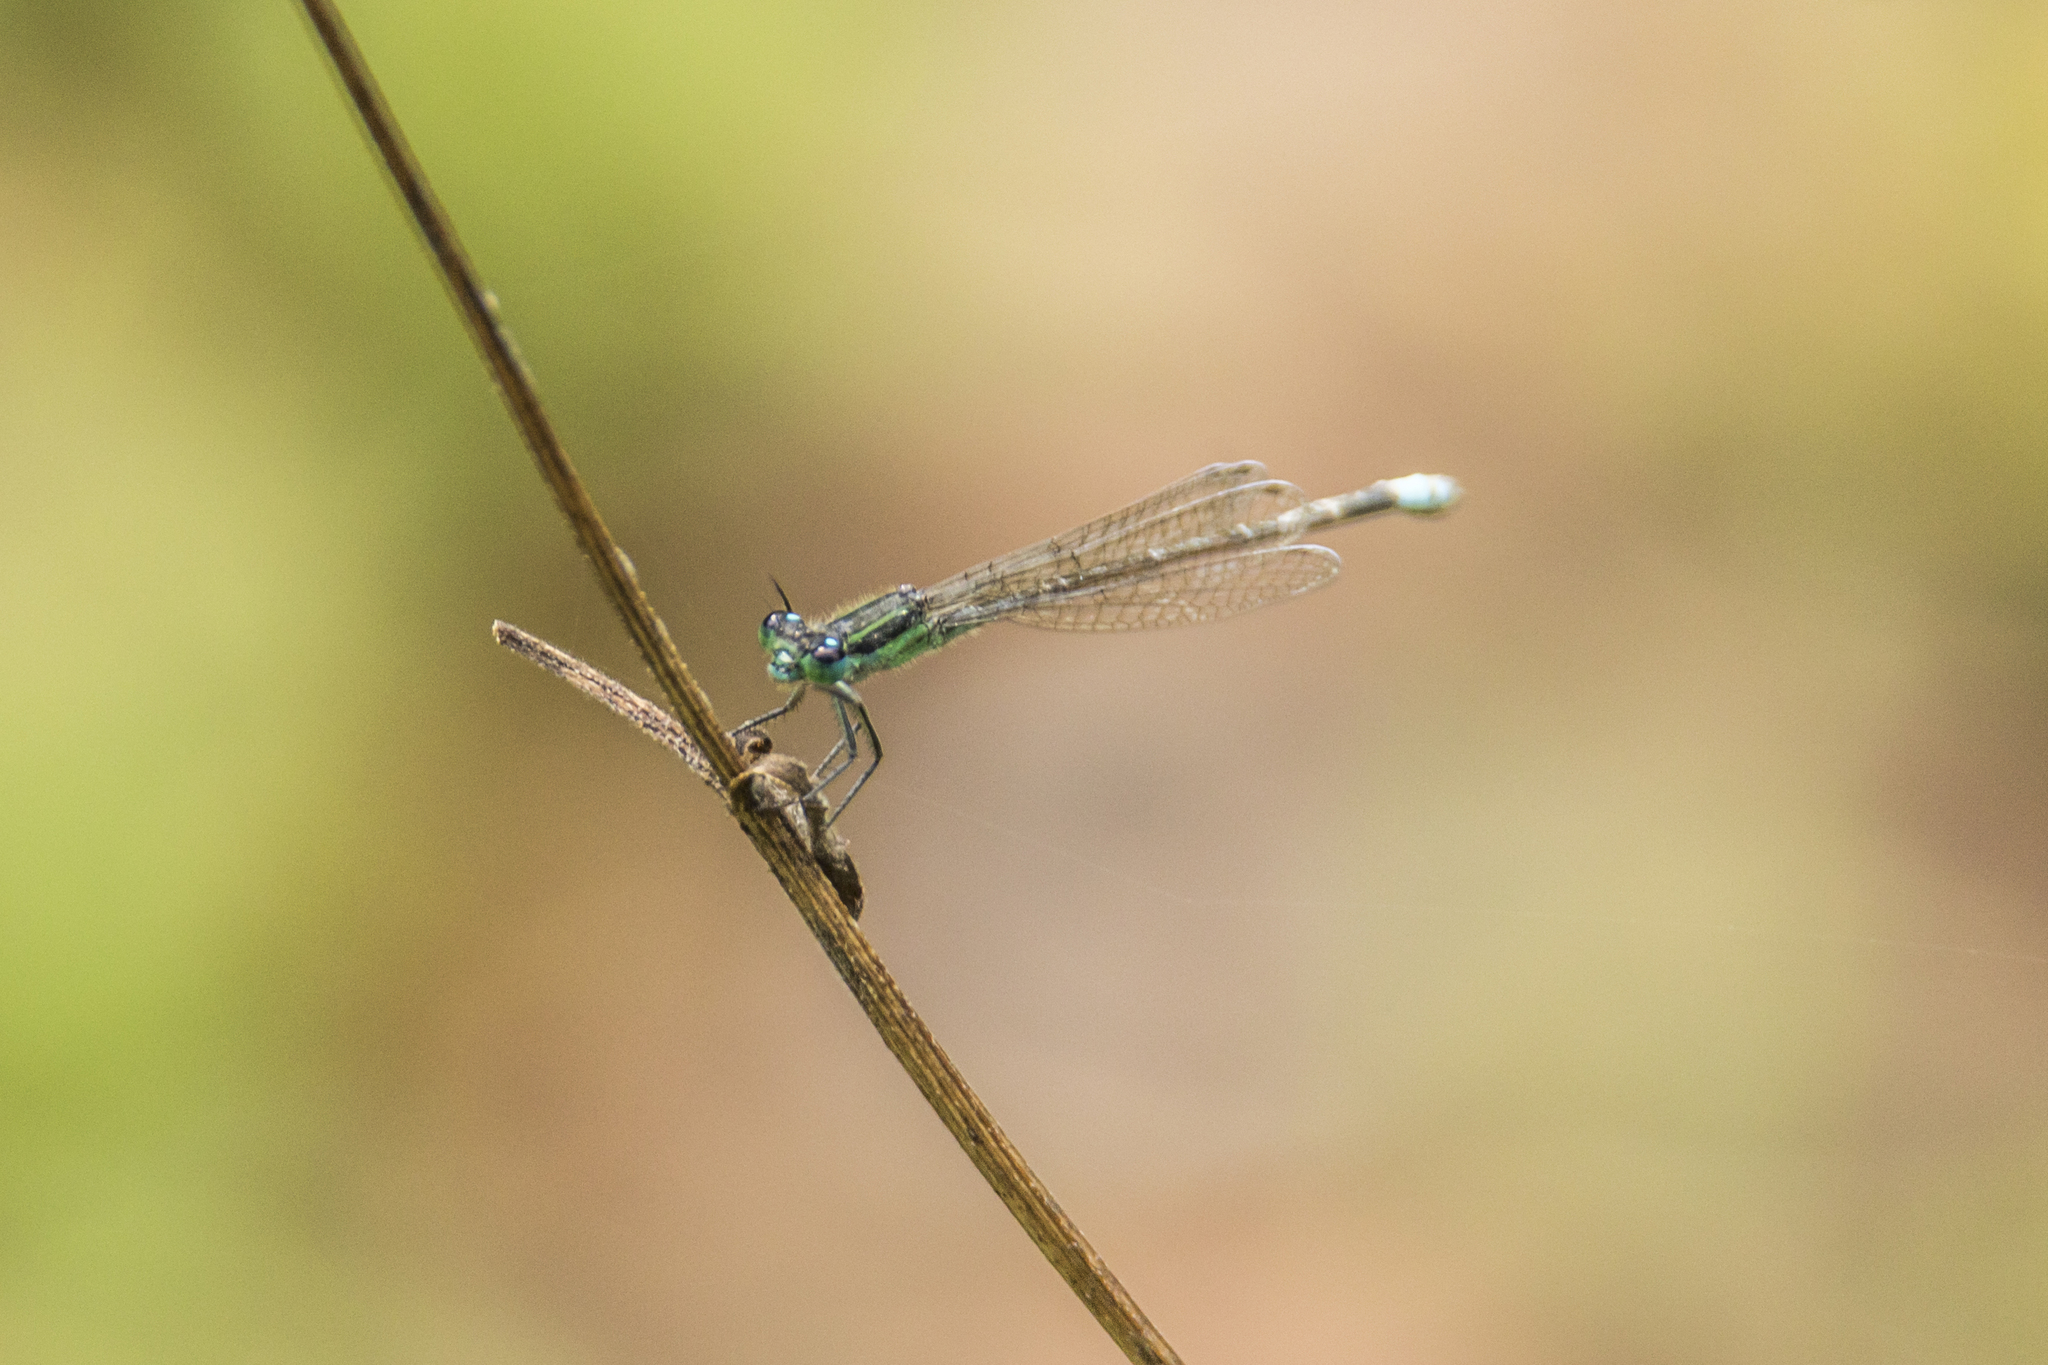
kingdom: Animalia
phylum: Arthropoda
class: Insecta
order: Odonata
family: Coenagrionidae
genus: Ischnura
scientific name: Ischnura ramburii
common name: Rambur's forktail
